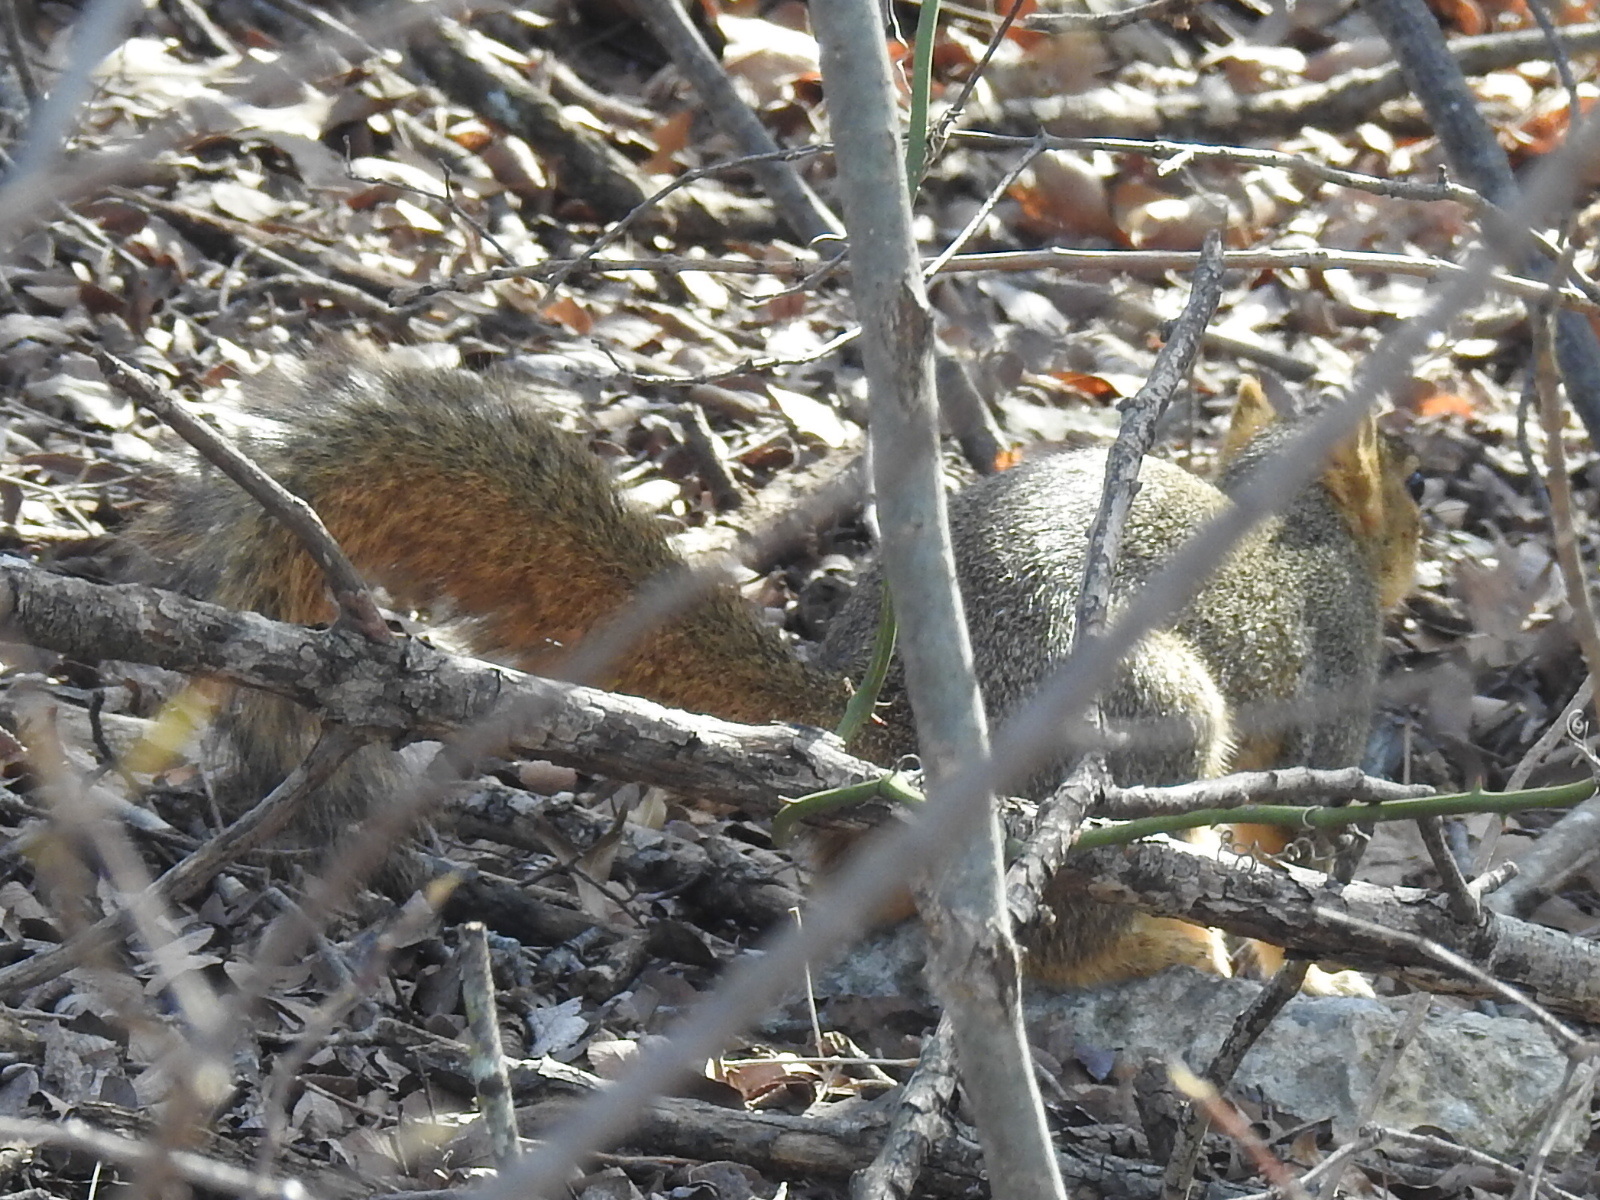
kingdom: Animalia
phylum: Chordata
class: Mammalia
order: Rodentia
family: Sciuridae
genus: Sciurus
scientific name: Sciurus niger
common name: Fox squirrel
